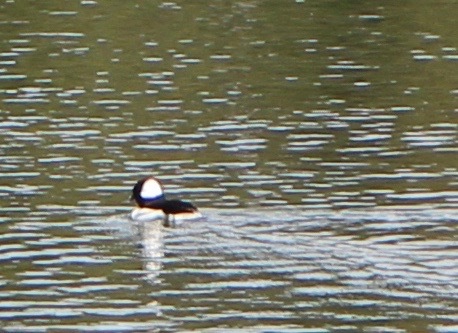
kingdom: Animalia
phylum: Chordata
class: Aves
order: Anseriformes
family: Anatidae
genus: Bucephala
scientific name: Bucephala albeola
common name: Bufflehead
